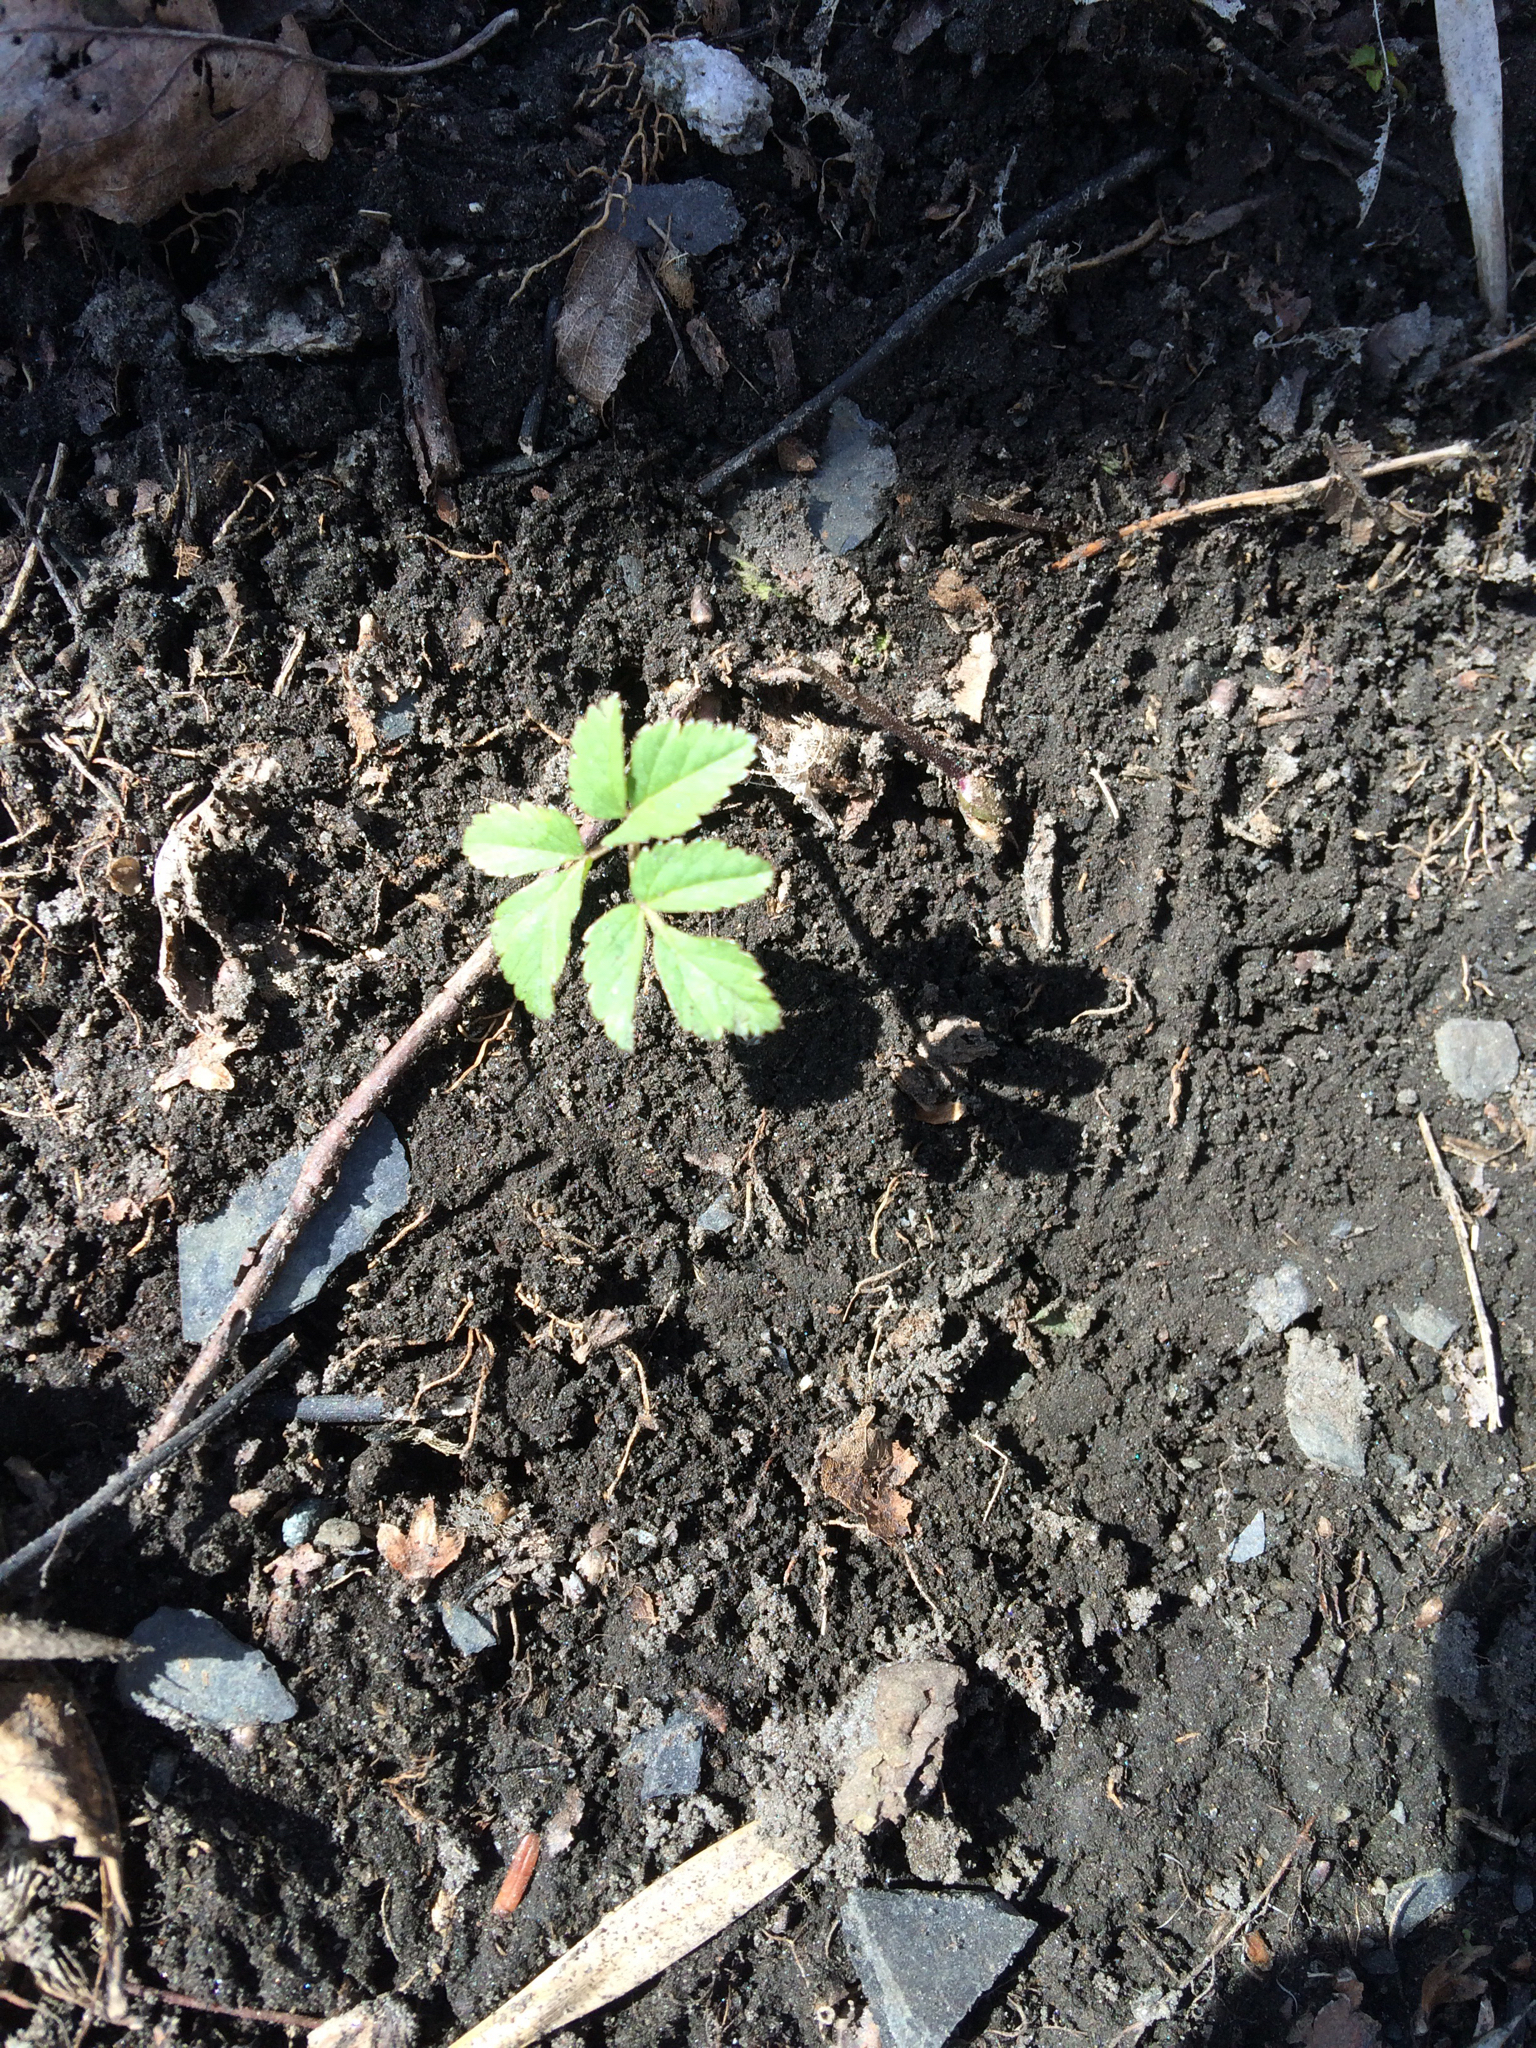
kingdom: Plantae
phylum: Tracheophyta
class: Magnoliopsida
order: Apiales
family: Apiaceae
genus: Aegopodium
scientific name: Aegopodium podagraria
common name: Ground-elder
